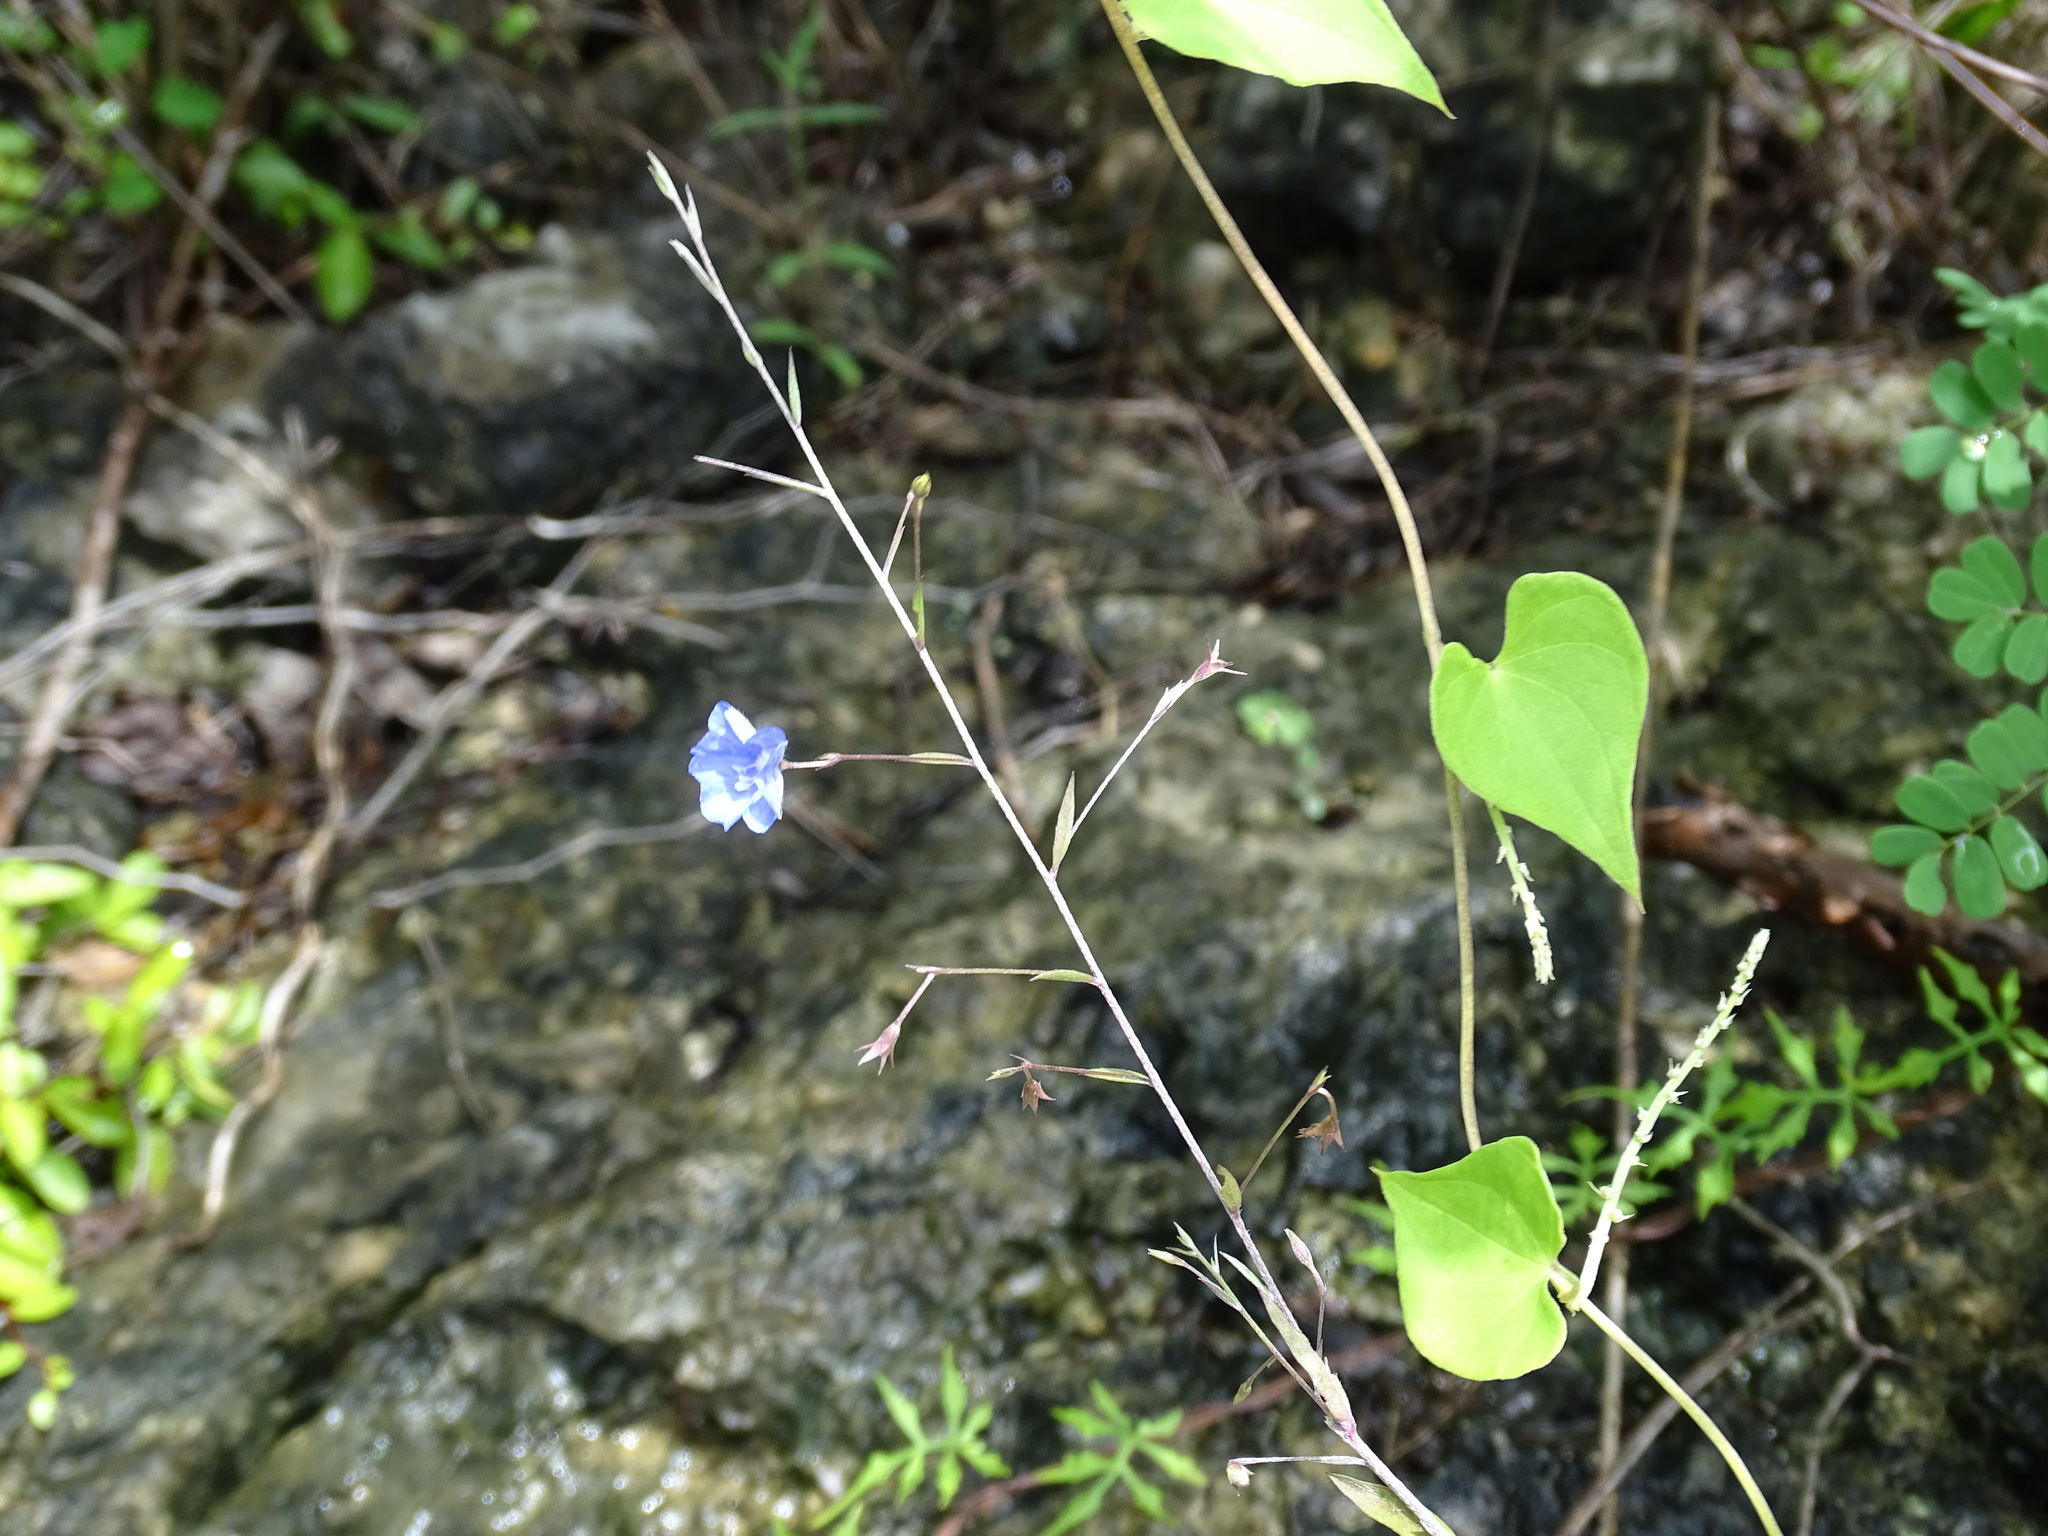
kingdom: Plantae
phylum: Tracheophyta
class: Magnoliopsida
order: Solanales
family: Convolvulaceae
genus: Evolvulus
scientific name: Evolvulus alsinoides
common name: Slender dwarf morning-glory
